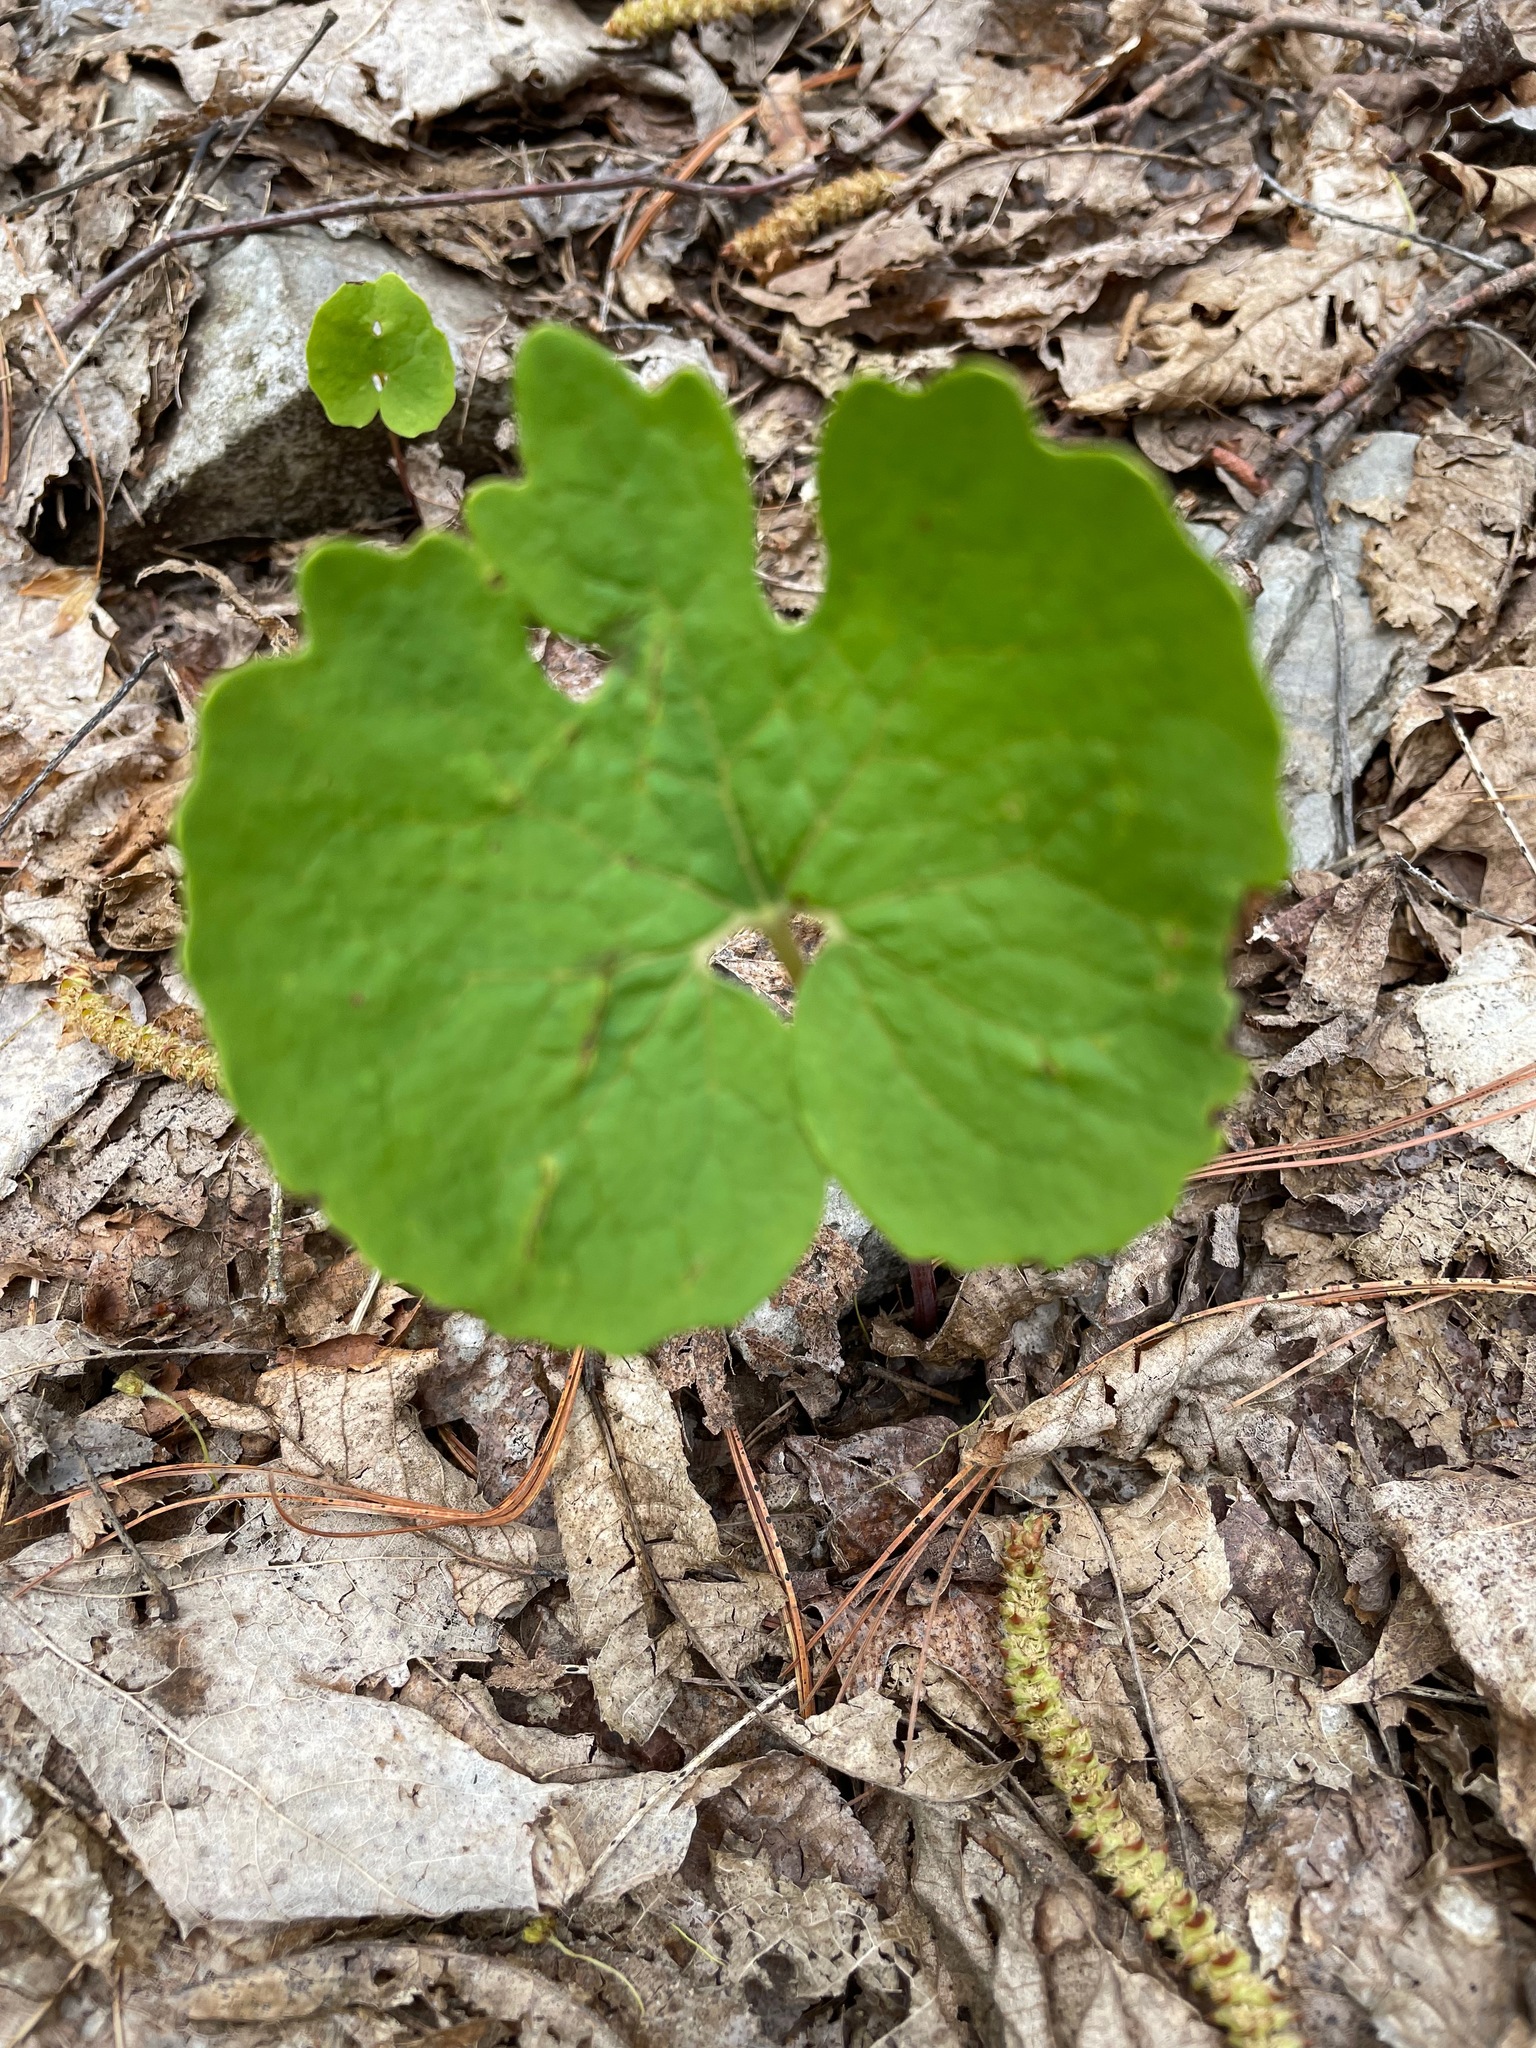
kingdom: Plantae
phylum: Tracheophyta
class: Magnoliopsida
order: Ranunculales
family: Papaveraceae
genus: Sanguinaria
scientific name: Sanguinaria canadensis
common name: Bloodroot
